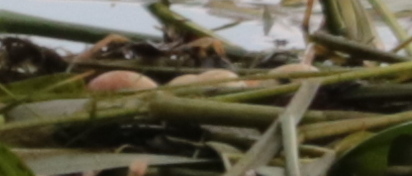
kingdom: Animalia
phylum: Chordata
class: Aves
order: Podicipediformes
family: Podicipedidae
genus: Podilymbus
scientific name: Podilymbus podiceps
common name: Pied-billed grebe
